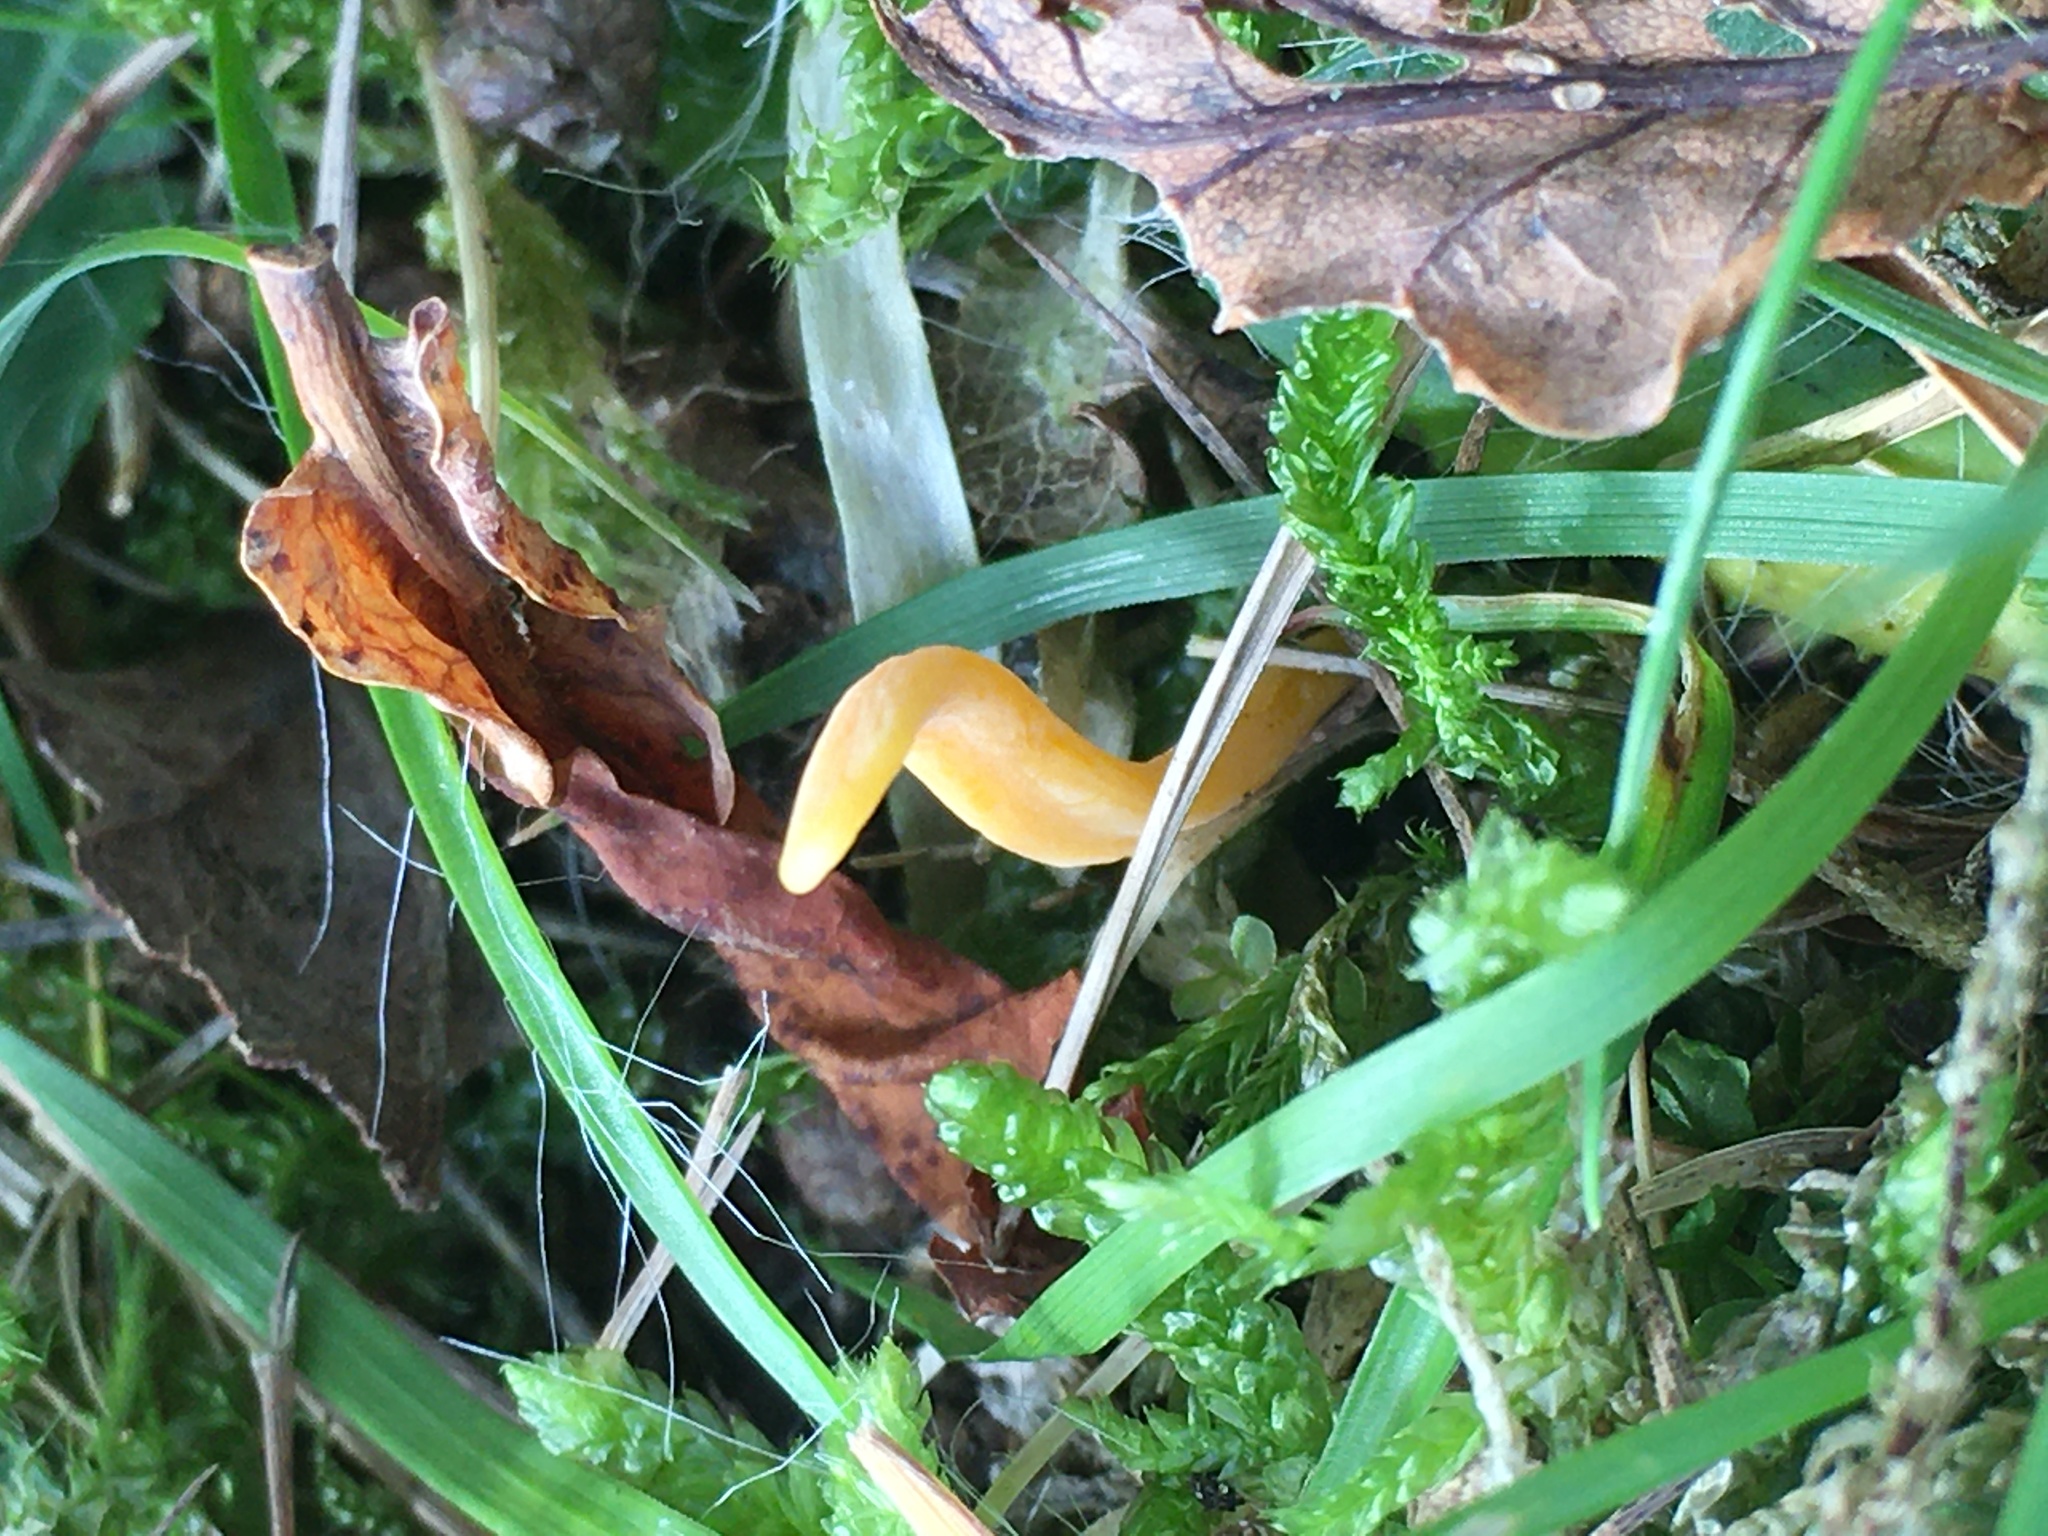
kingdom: Fungi
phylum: Basidiomycota
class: Agaricomycetes
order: Agaricales
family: Clavariaceae
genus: Clavulinopsis
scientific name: Clavulinopsis laeticolor
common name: Handsome club
